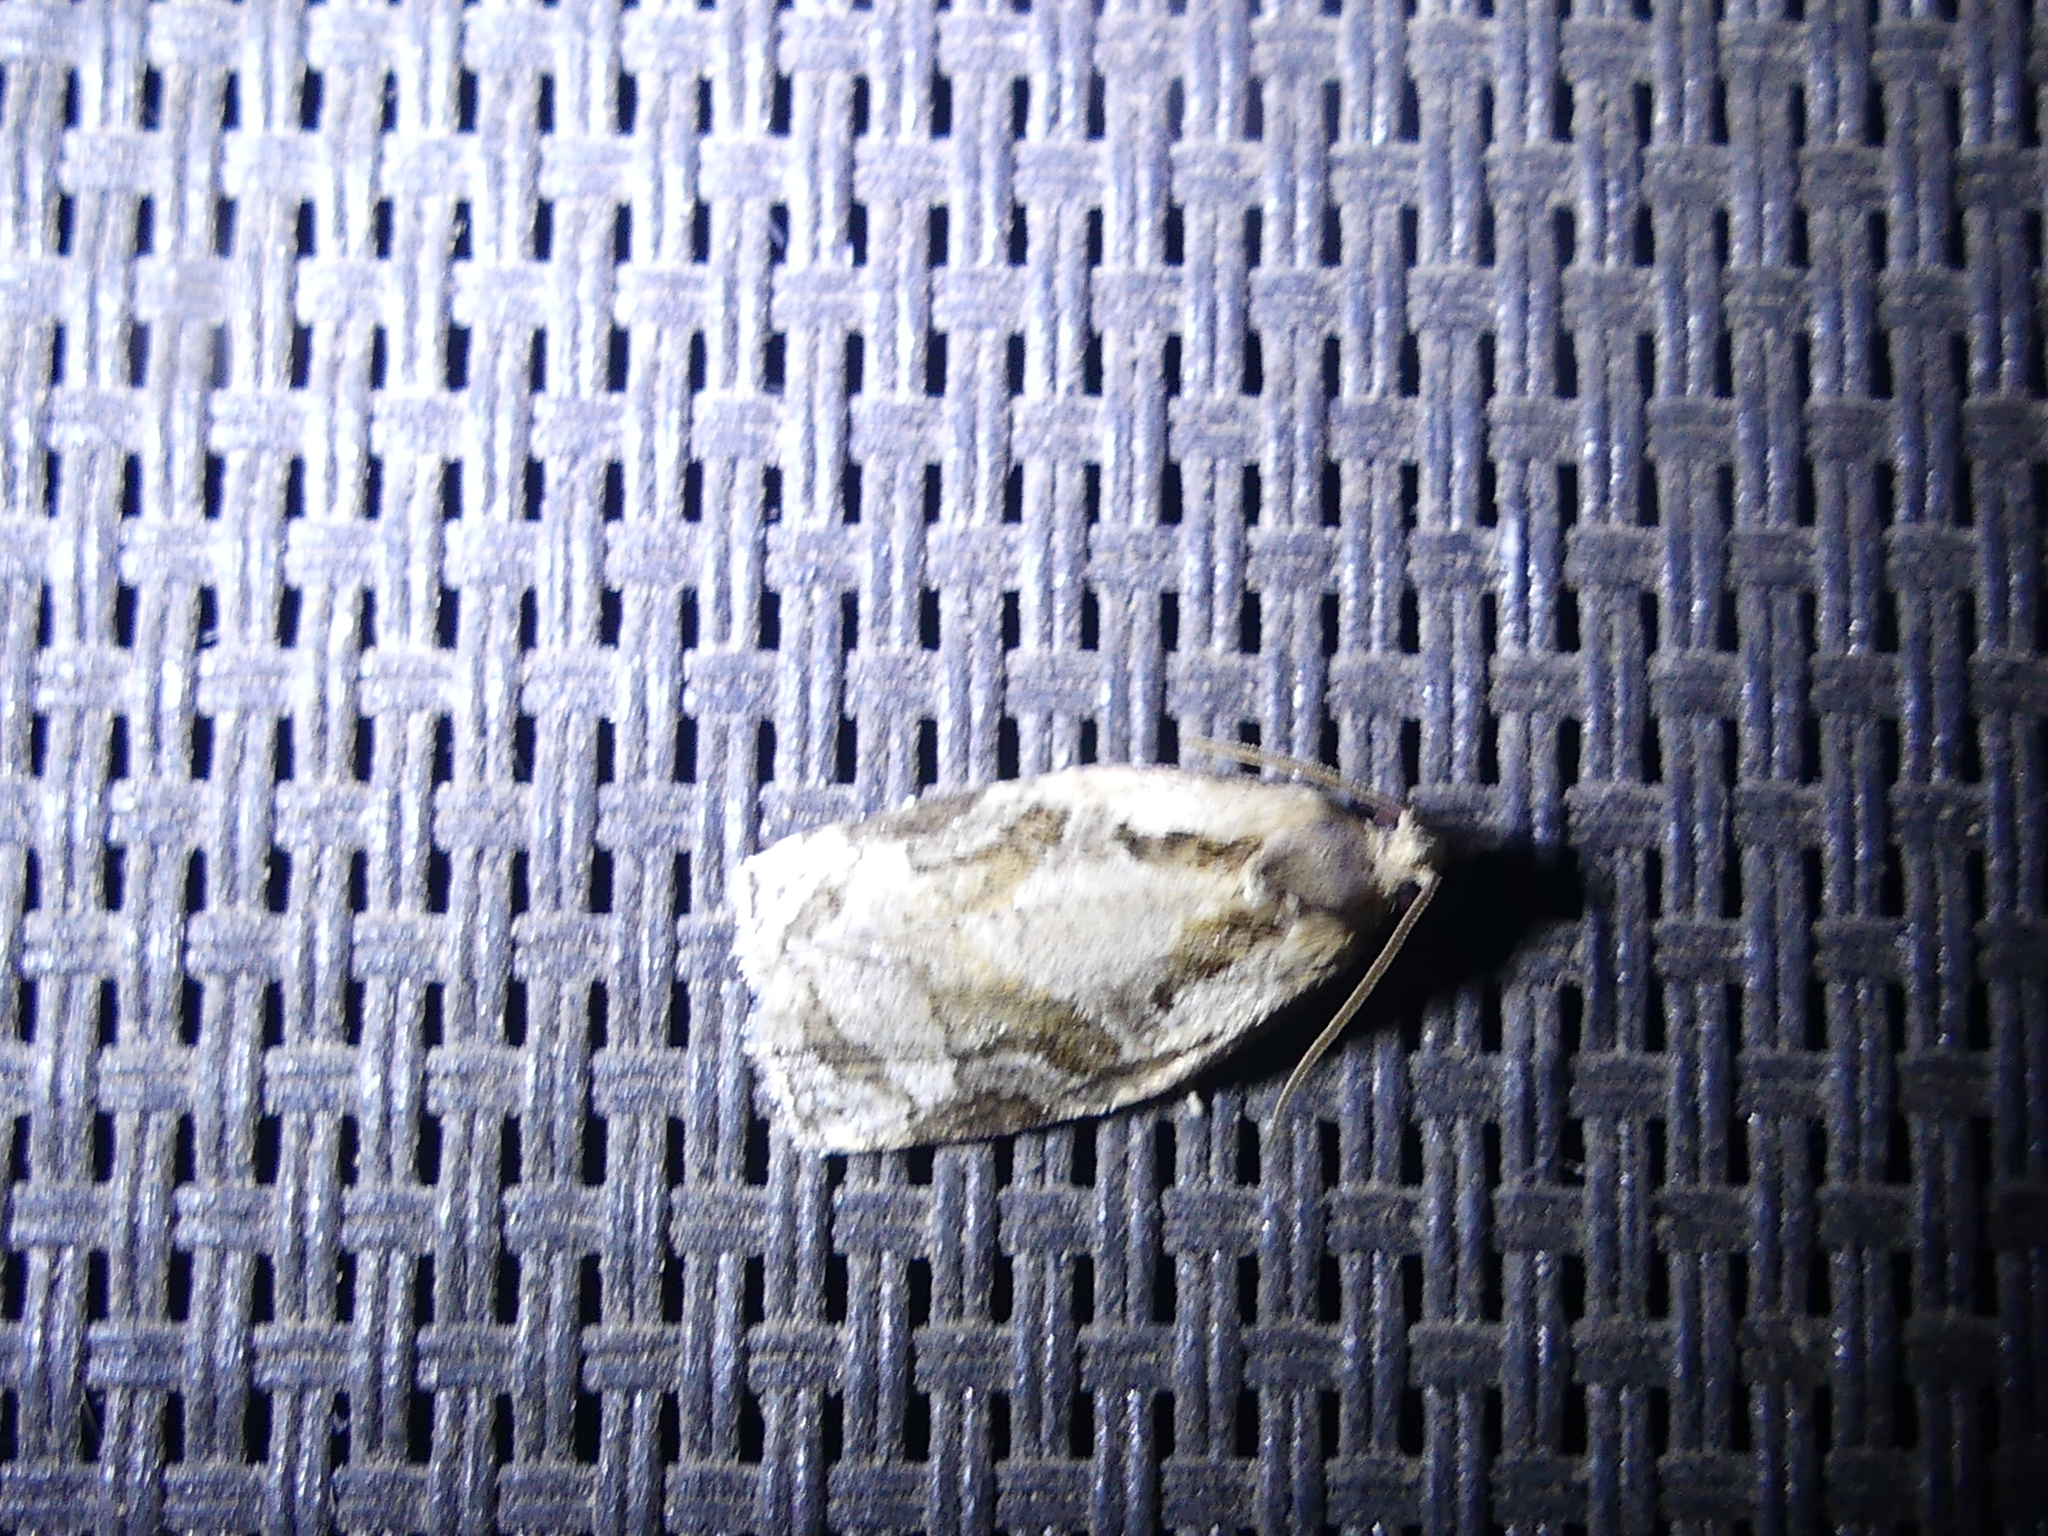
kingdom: Animalia
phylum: Arthropoda
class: Insecta
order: Lepidoptera
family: Tortricidae
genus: Archips
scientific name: Archips grisea
